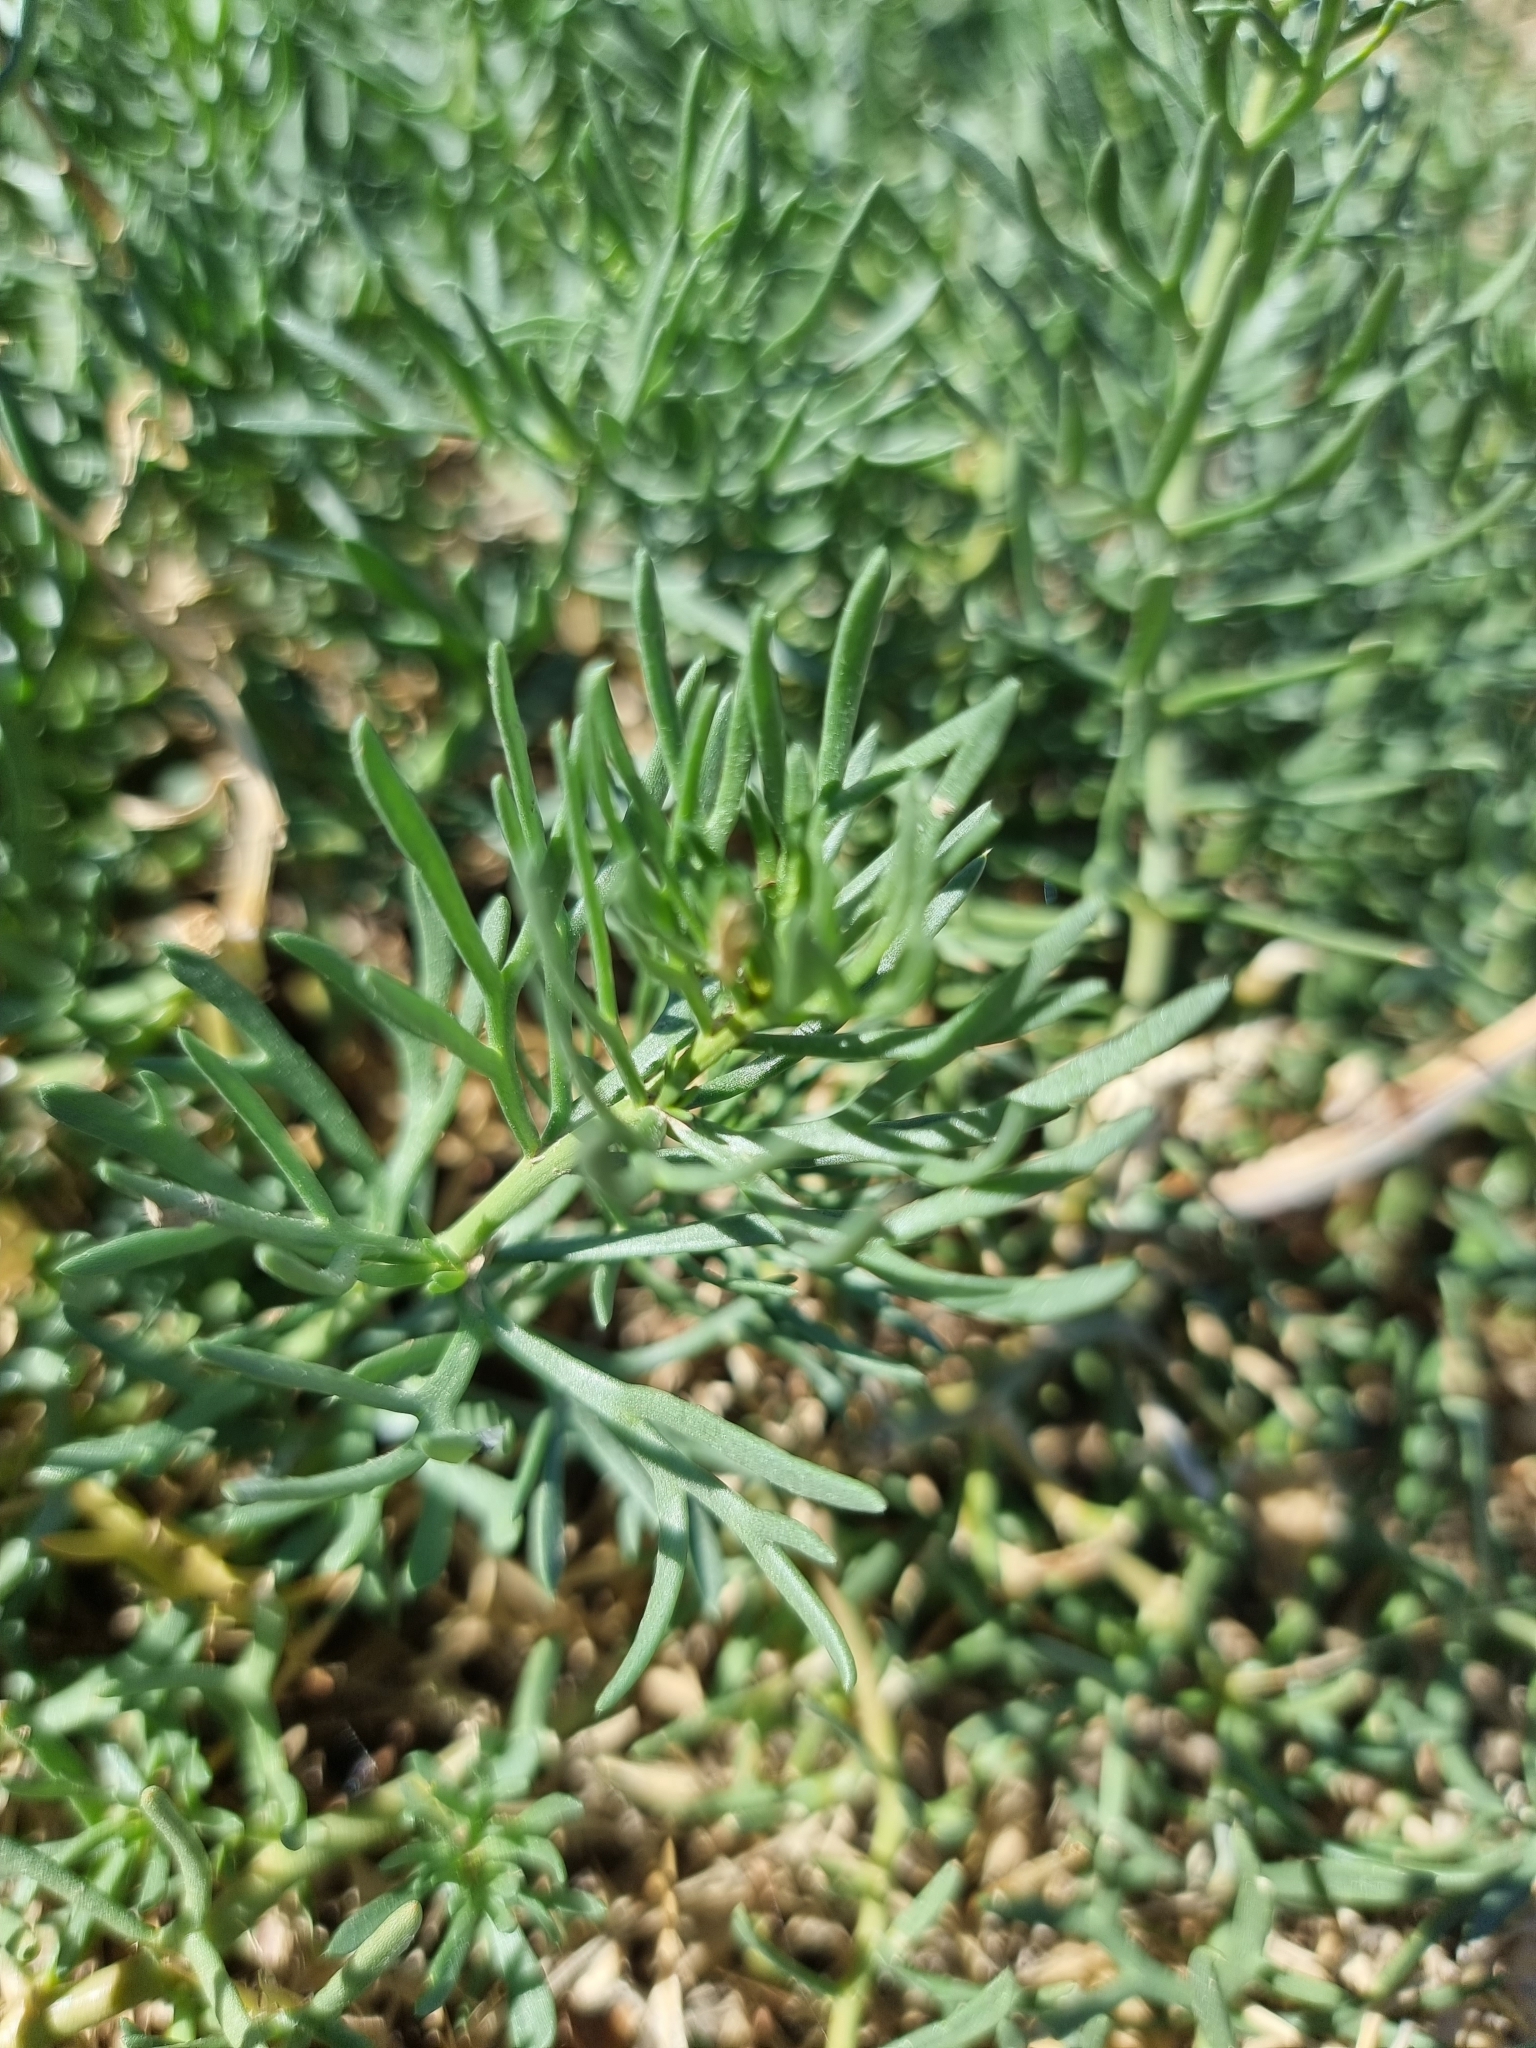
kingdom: Plantae
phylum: Tracheophyta
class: Magnoliopsida
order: Sapindales
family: Tetradiclidaceae
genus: Peganum
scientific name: Peganum harmala
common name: Harmal peganum
